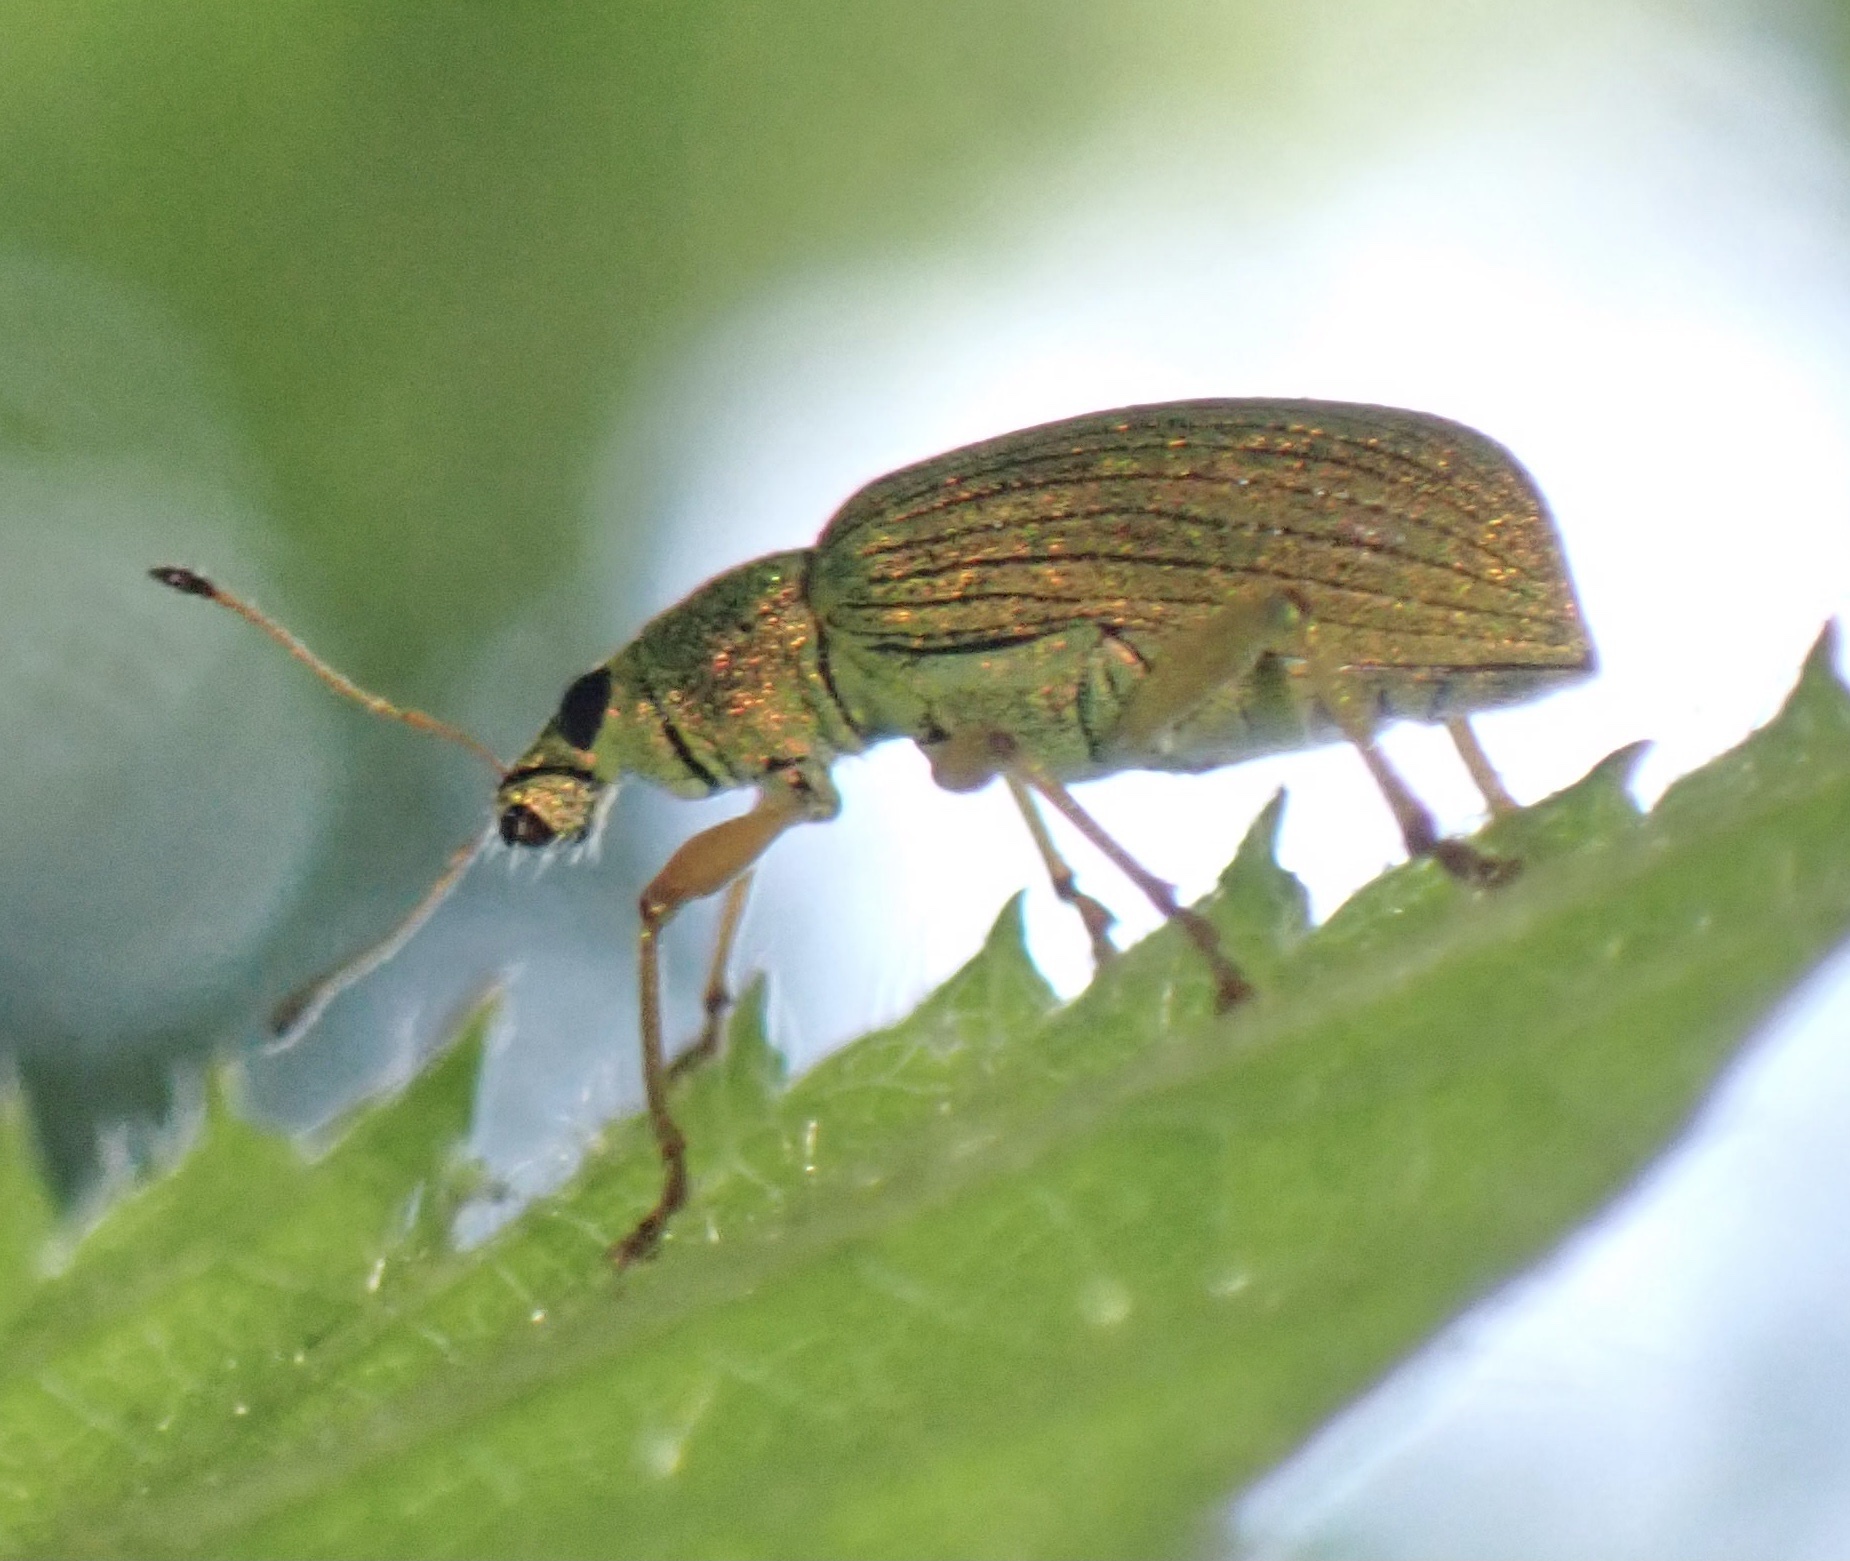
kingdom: Animalia
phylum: Arthropoda
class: Insecta
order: Coleoptera
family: Curculionidae
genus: Polydrusus
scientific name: Polydrusus formosus
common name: Weevil
